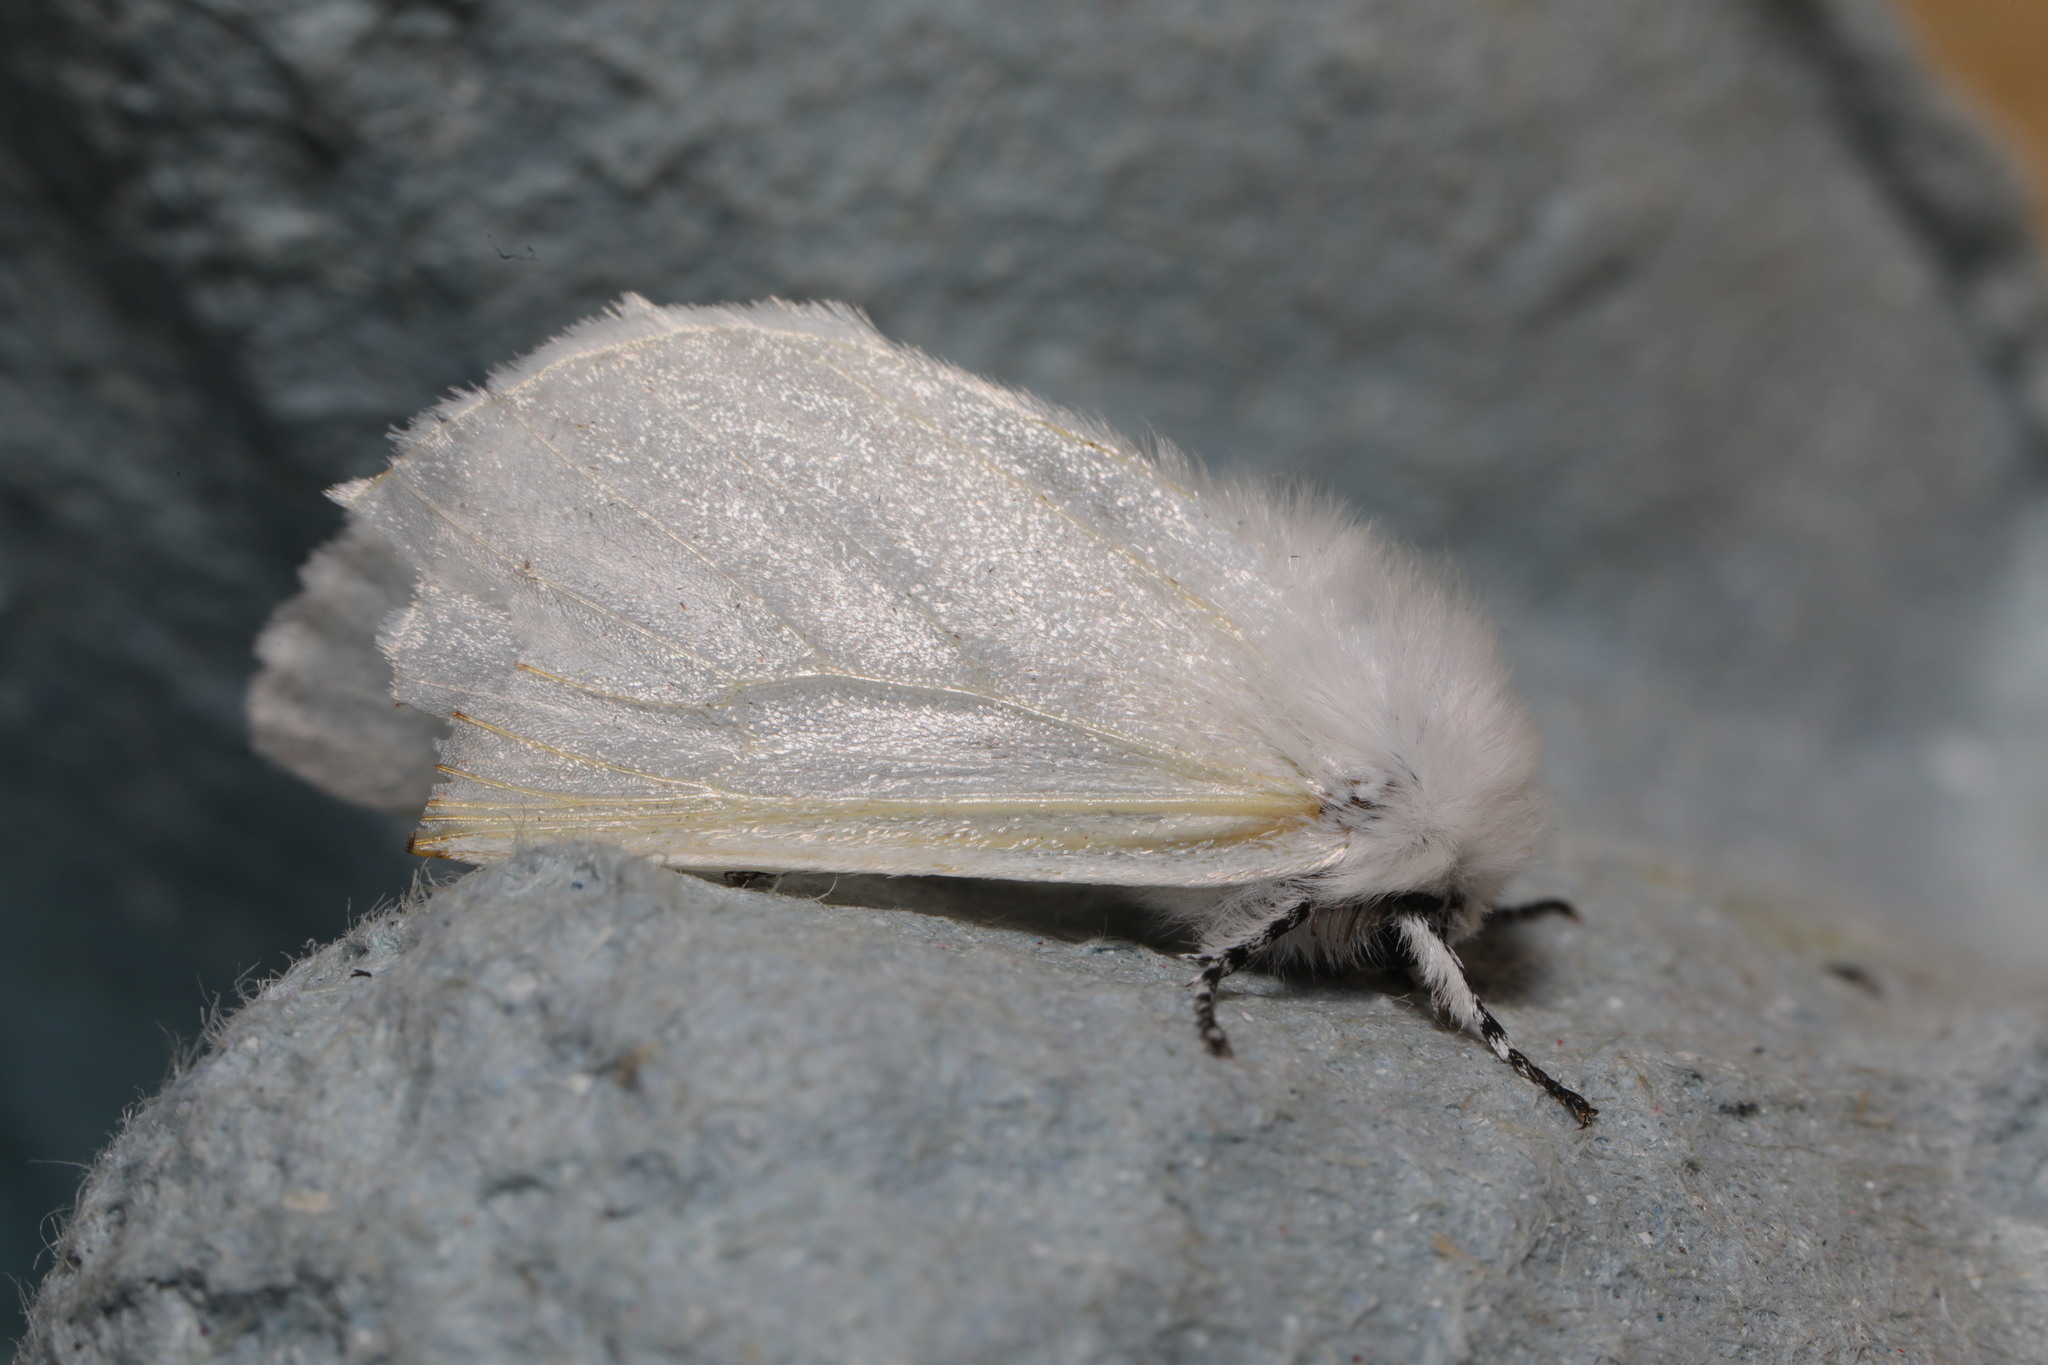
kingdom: Animalia
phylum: Arthropoda
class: Insecta
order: Lepidoptera
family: Erebidae
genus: Leucoma
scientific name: Leucoma salicis
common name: White satin moth
